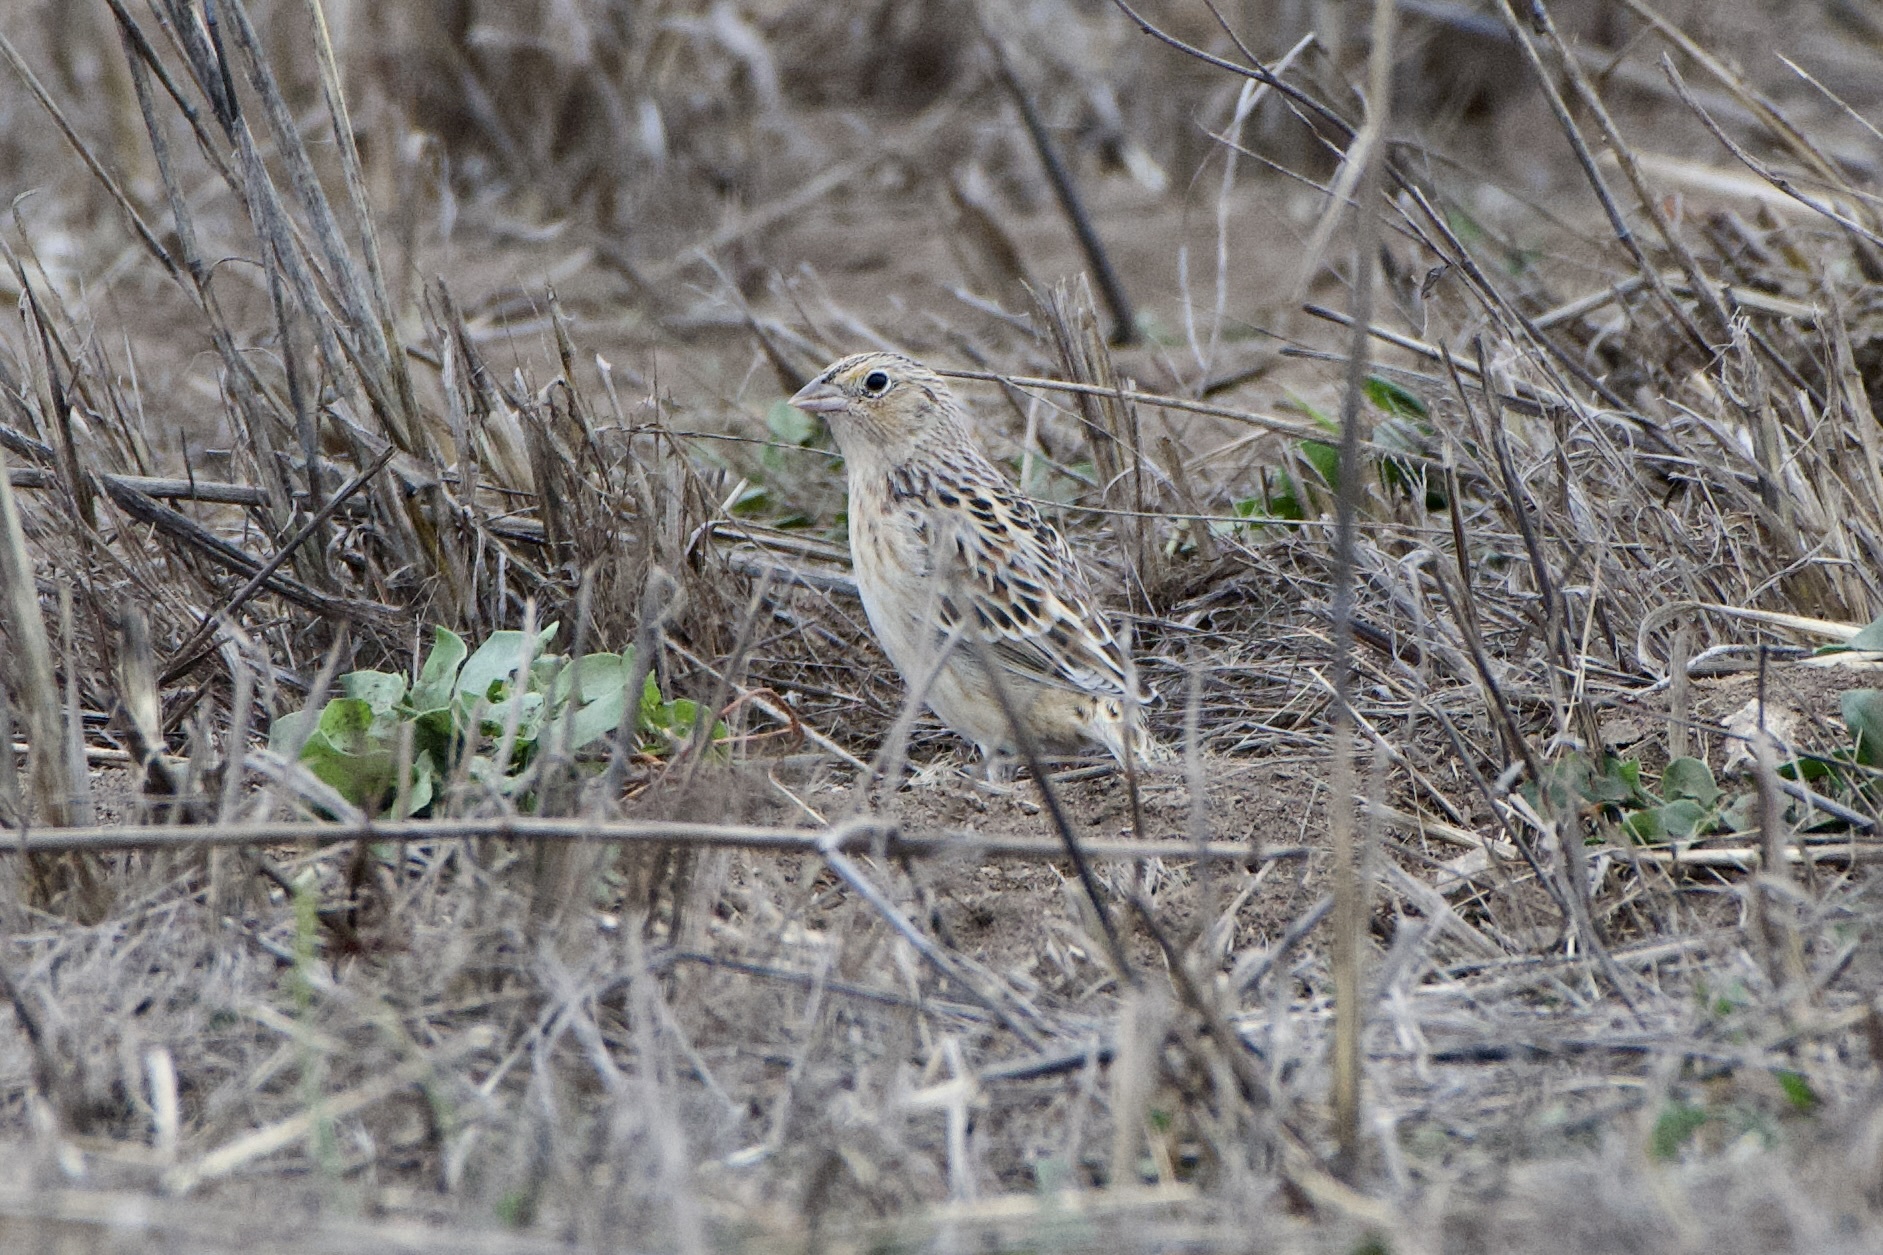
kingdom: Animalia
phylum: Chordata
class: Aves
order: Passeriformes
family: Passerellidae
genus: Ammodramus
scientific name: Ammodramus savannarum
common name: Grasshopper sparrow
